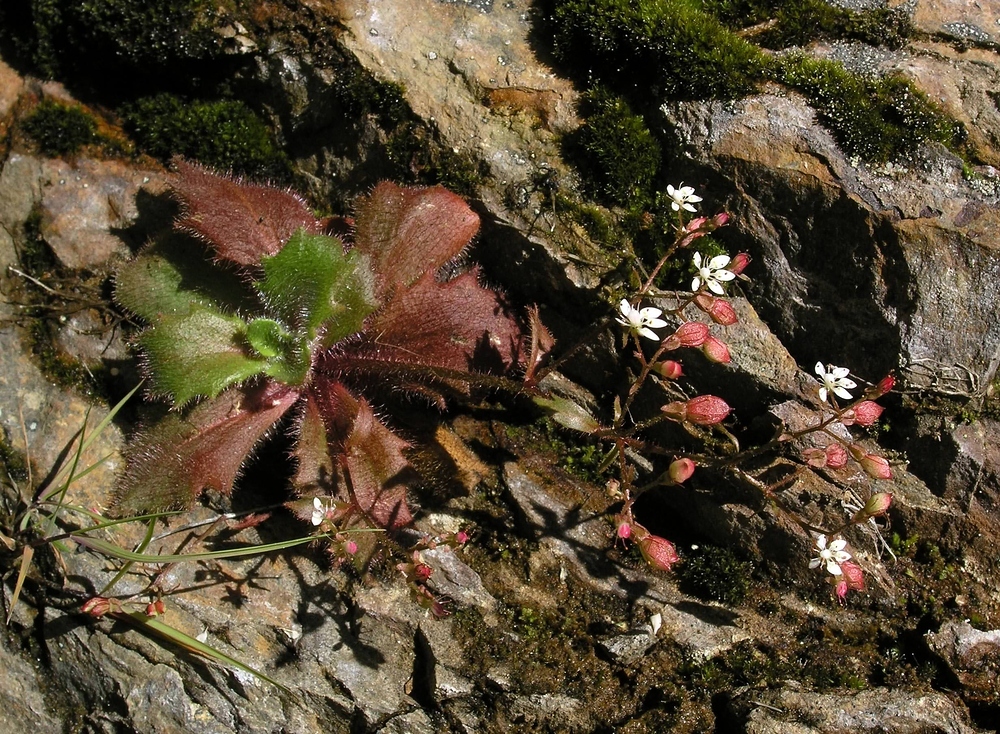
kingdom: Plantae
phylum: Tracheophyta
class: Magnoliopsida
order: Saxifragales
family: Saxifragaceae
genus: Micranthes
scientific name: Micranthes clusii
